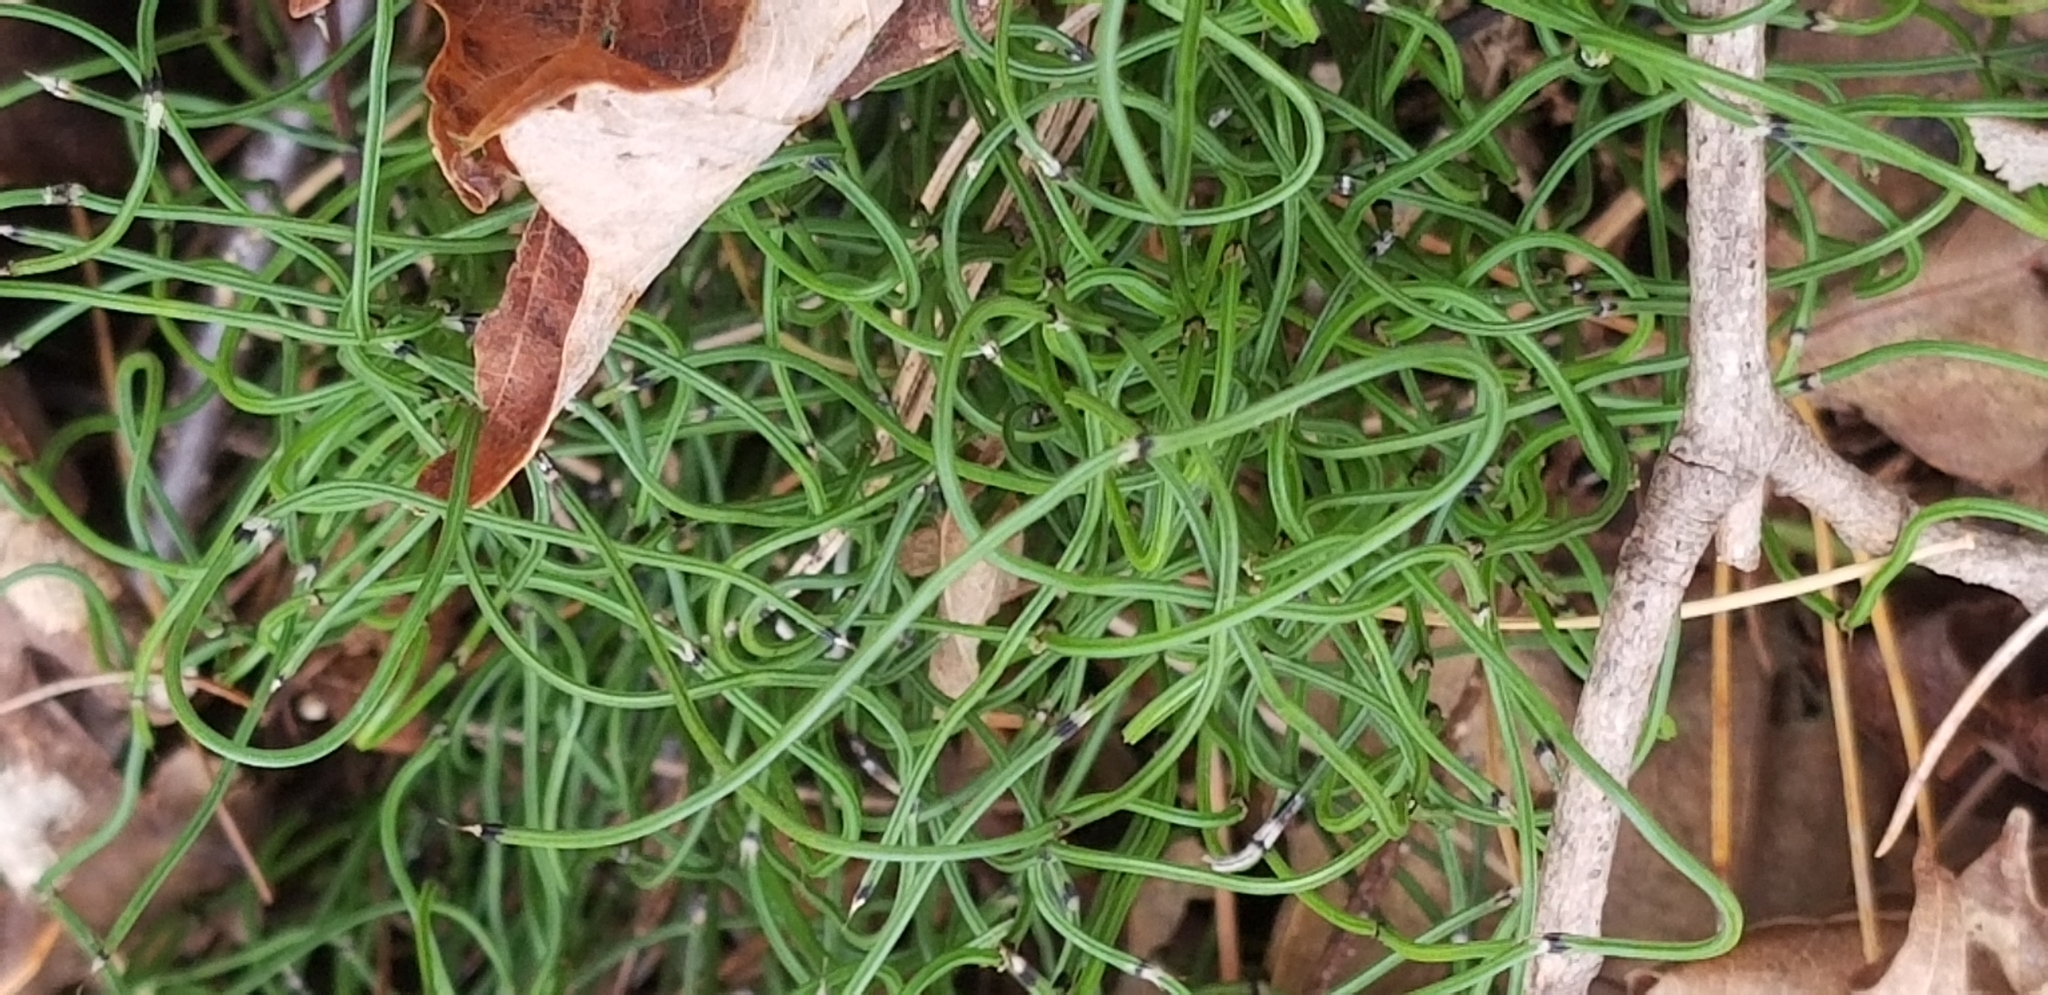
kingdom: Plantae
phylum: Tracheophyta
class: Polypodiopsida
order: Equisetales
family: Equisetaceae
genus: Equisetum
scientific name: Equisetum scirpoides
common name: Delicate horsetail
